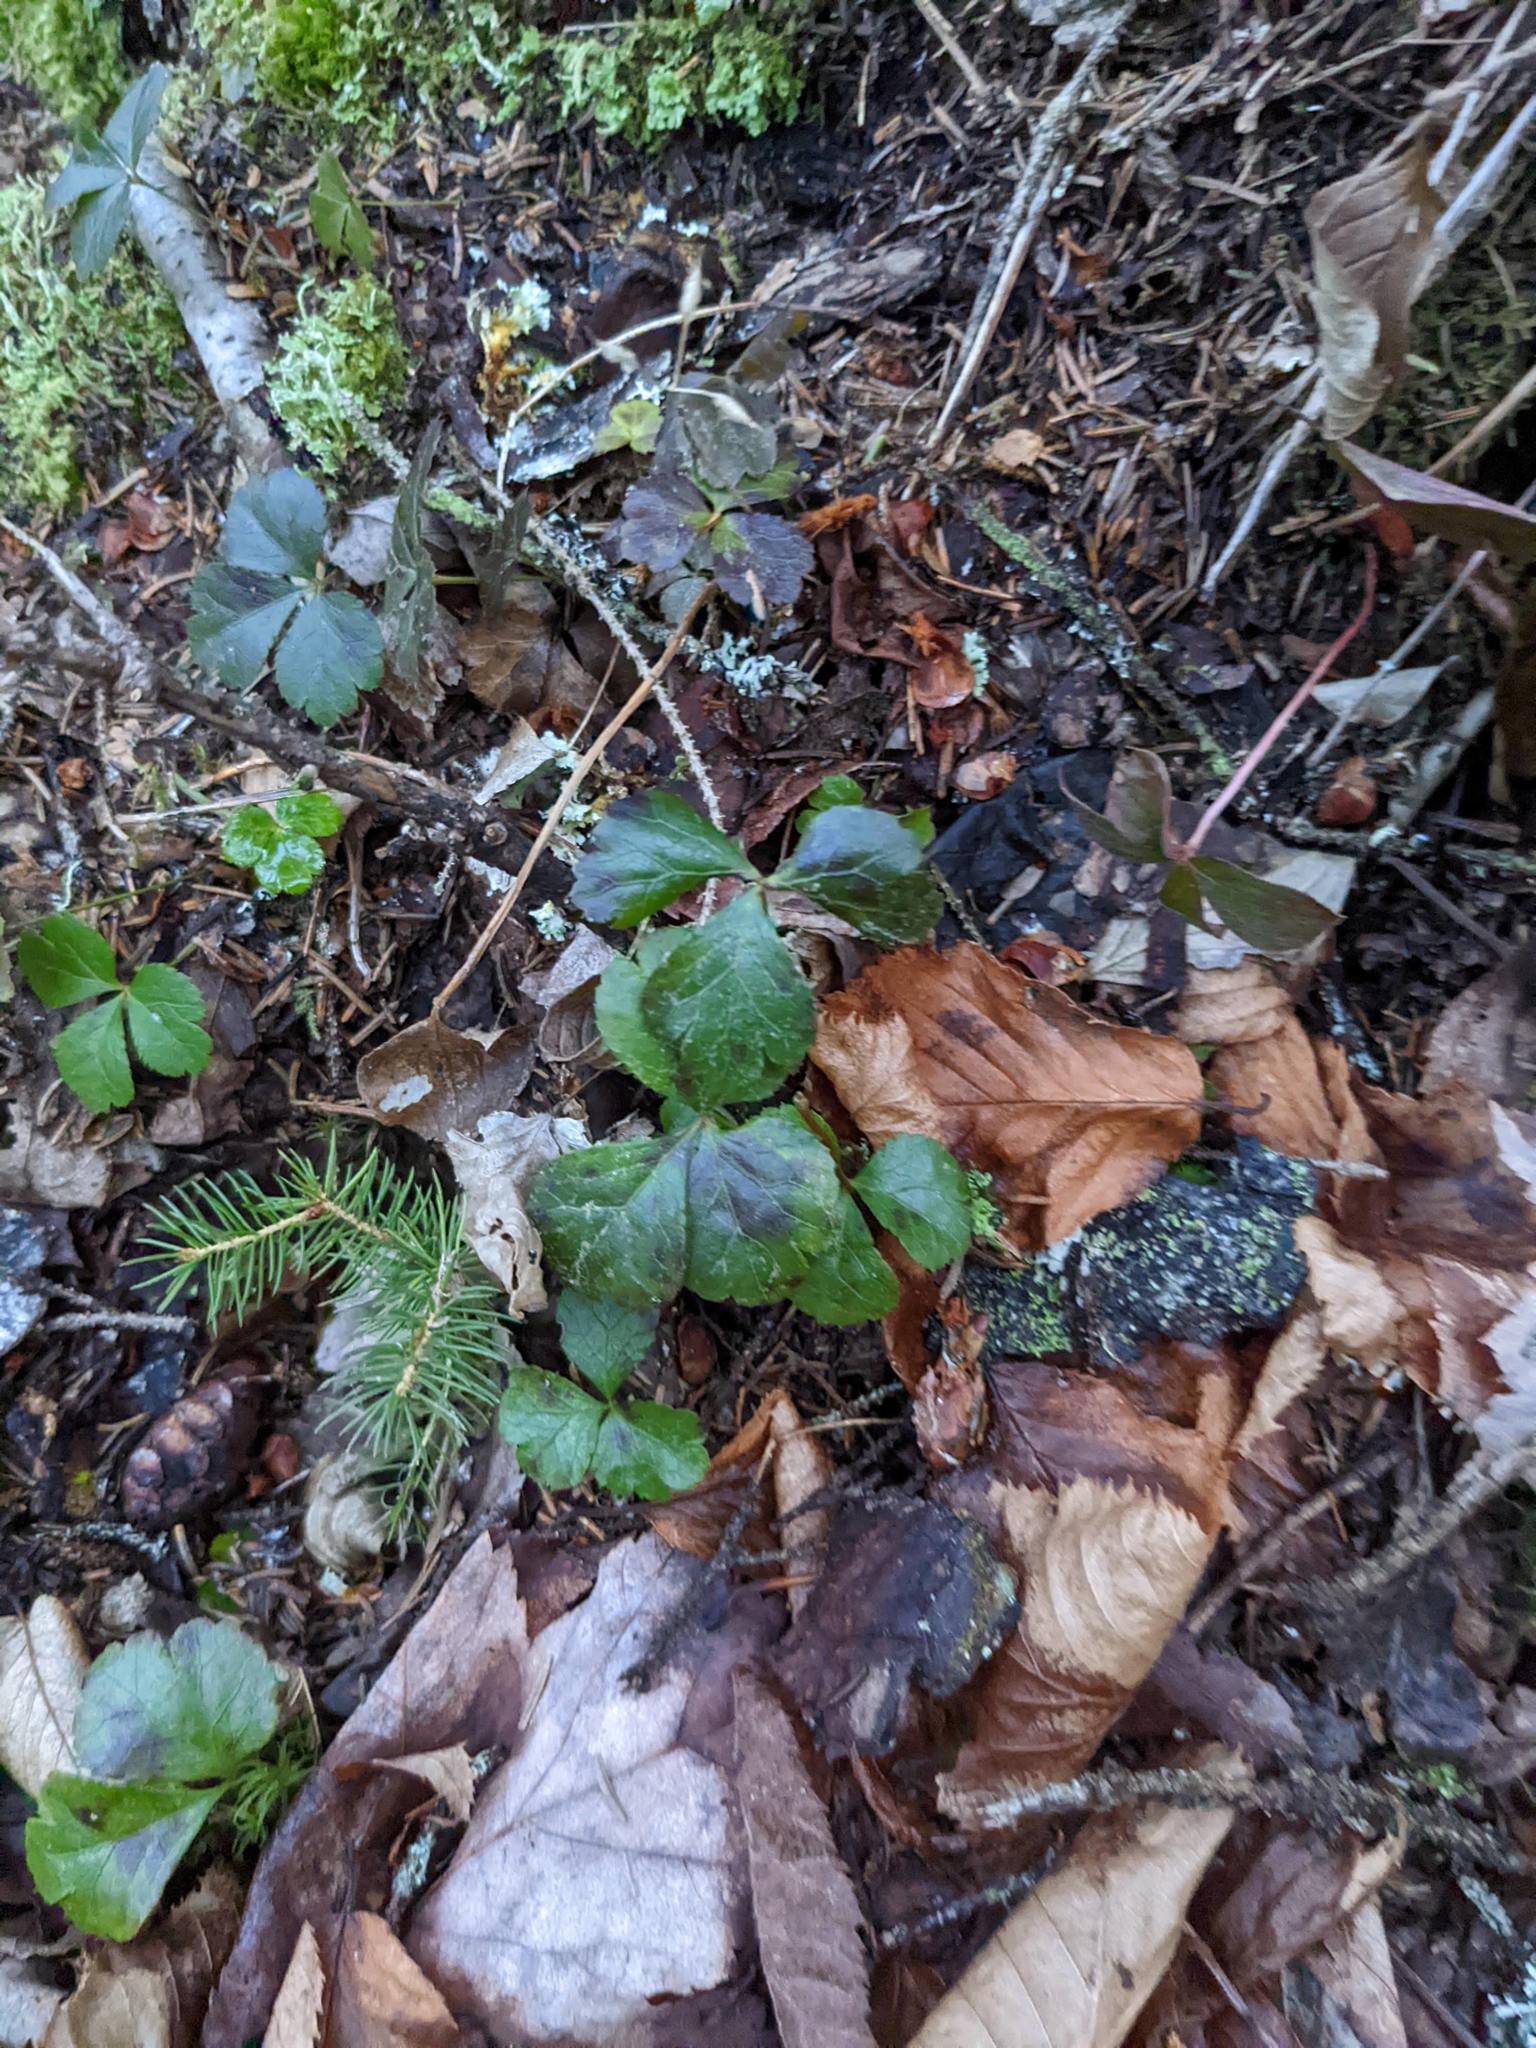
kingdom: Plantae
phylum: Tracheophyta
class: Magnoliopsida
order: Ranunculales
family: Ranunculaceae
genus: Coptis
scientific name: Coptis trifolia
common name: Canker-root
